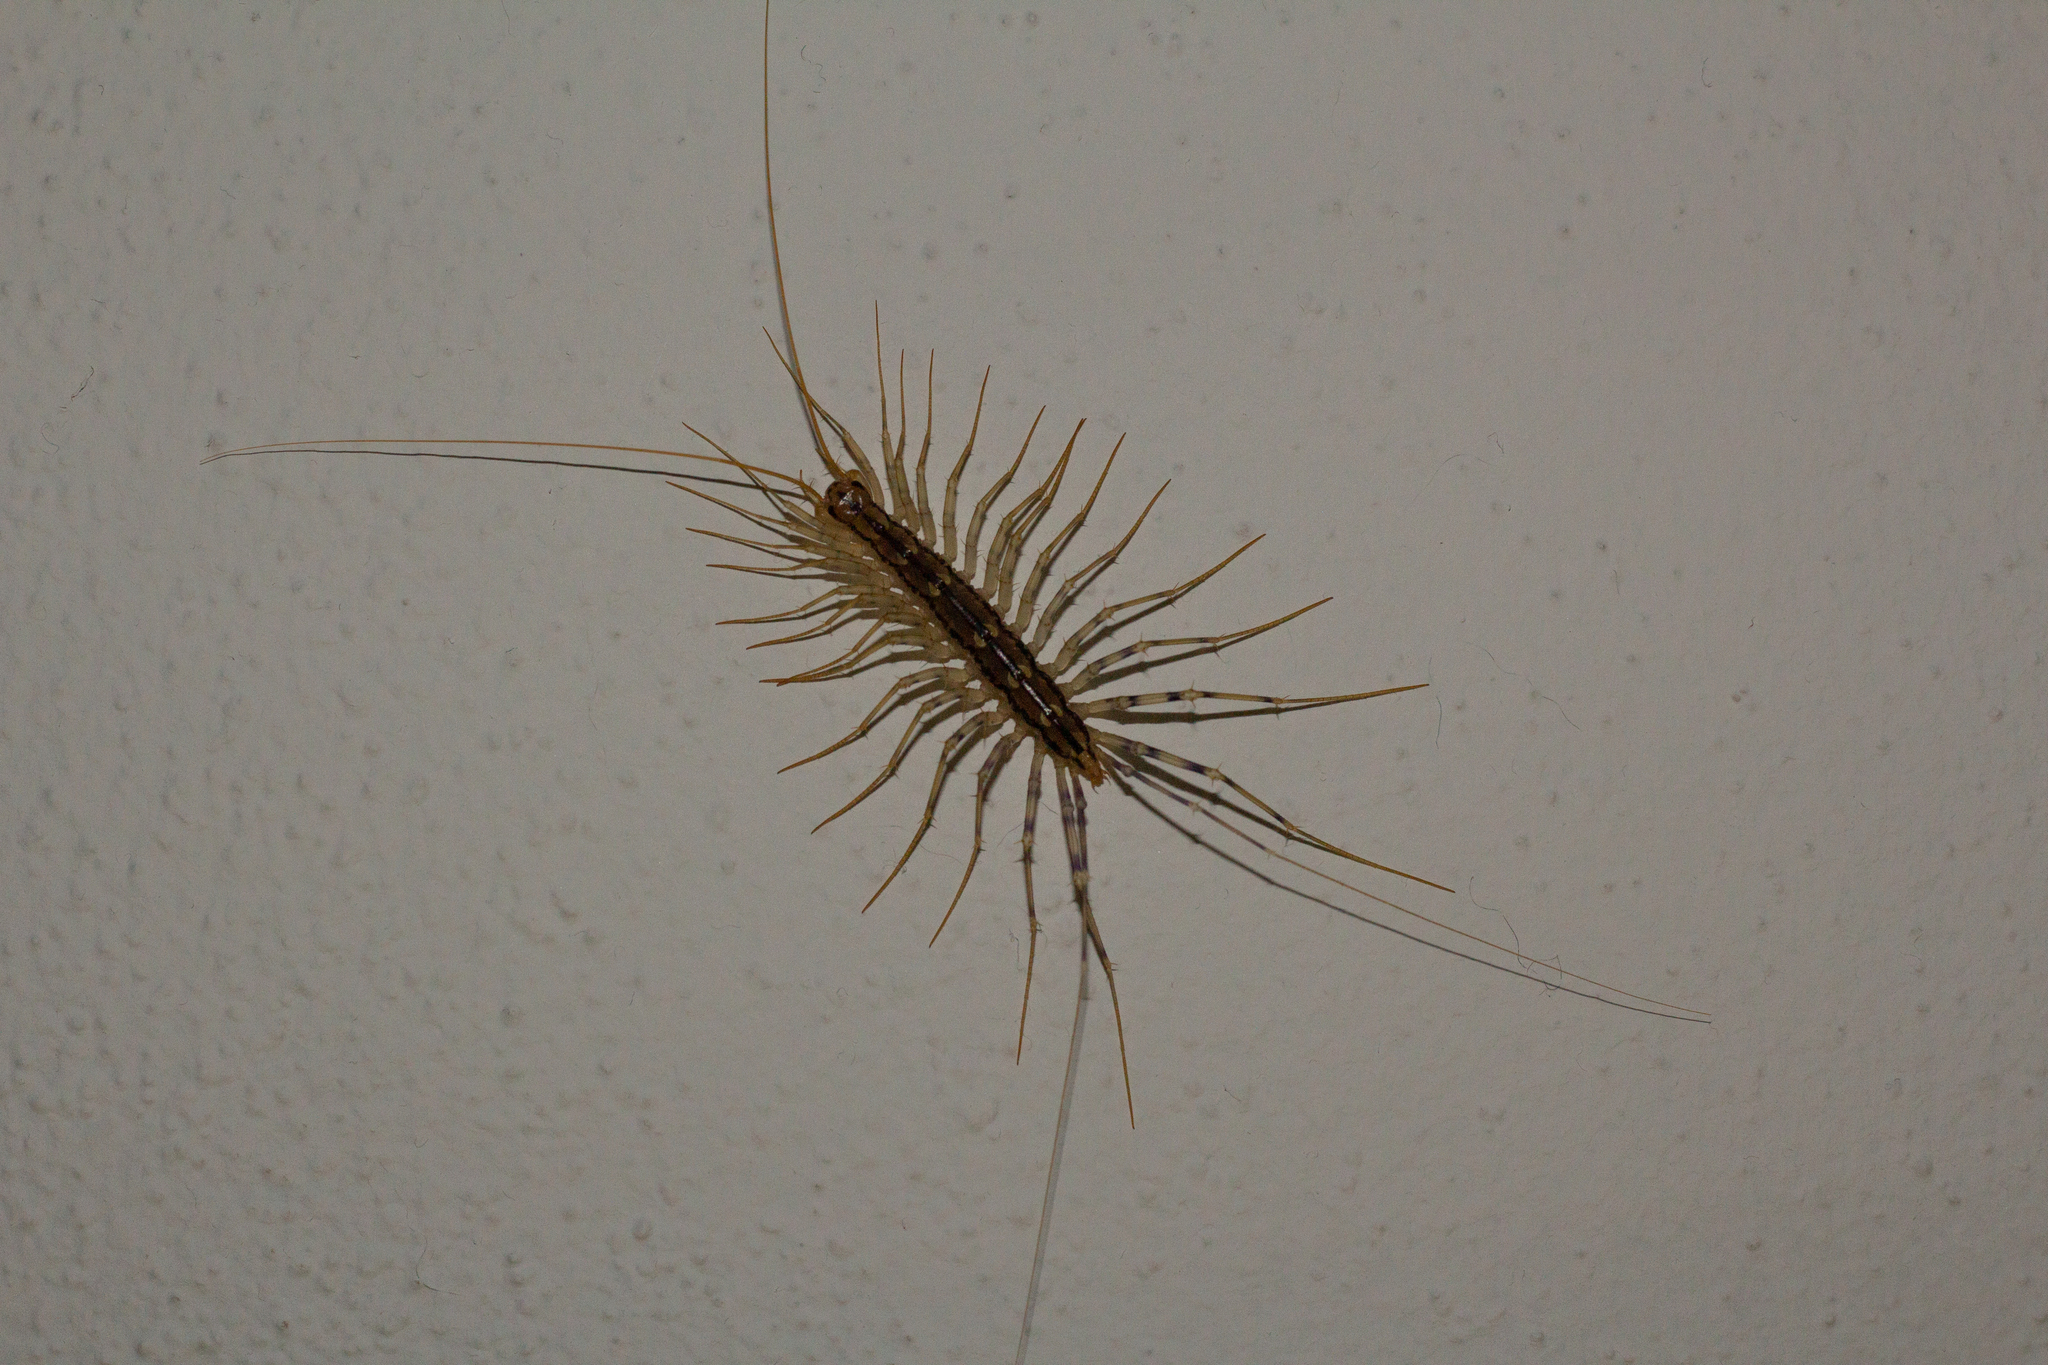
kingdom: Animalia
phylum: Arthropoda
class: Chilopoda
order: Scutigeromorpha
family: Scutigeridae
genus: Scutigera
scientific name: Scutigera coleoptrata
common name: House centipede
